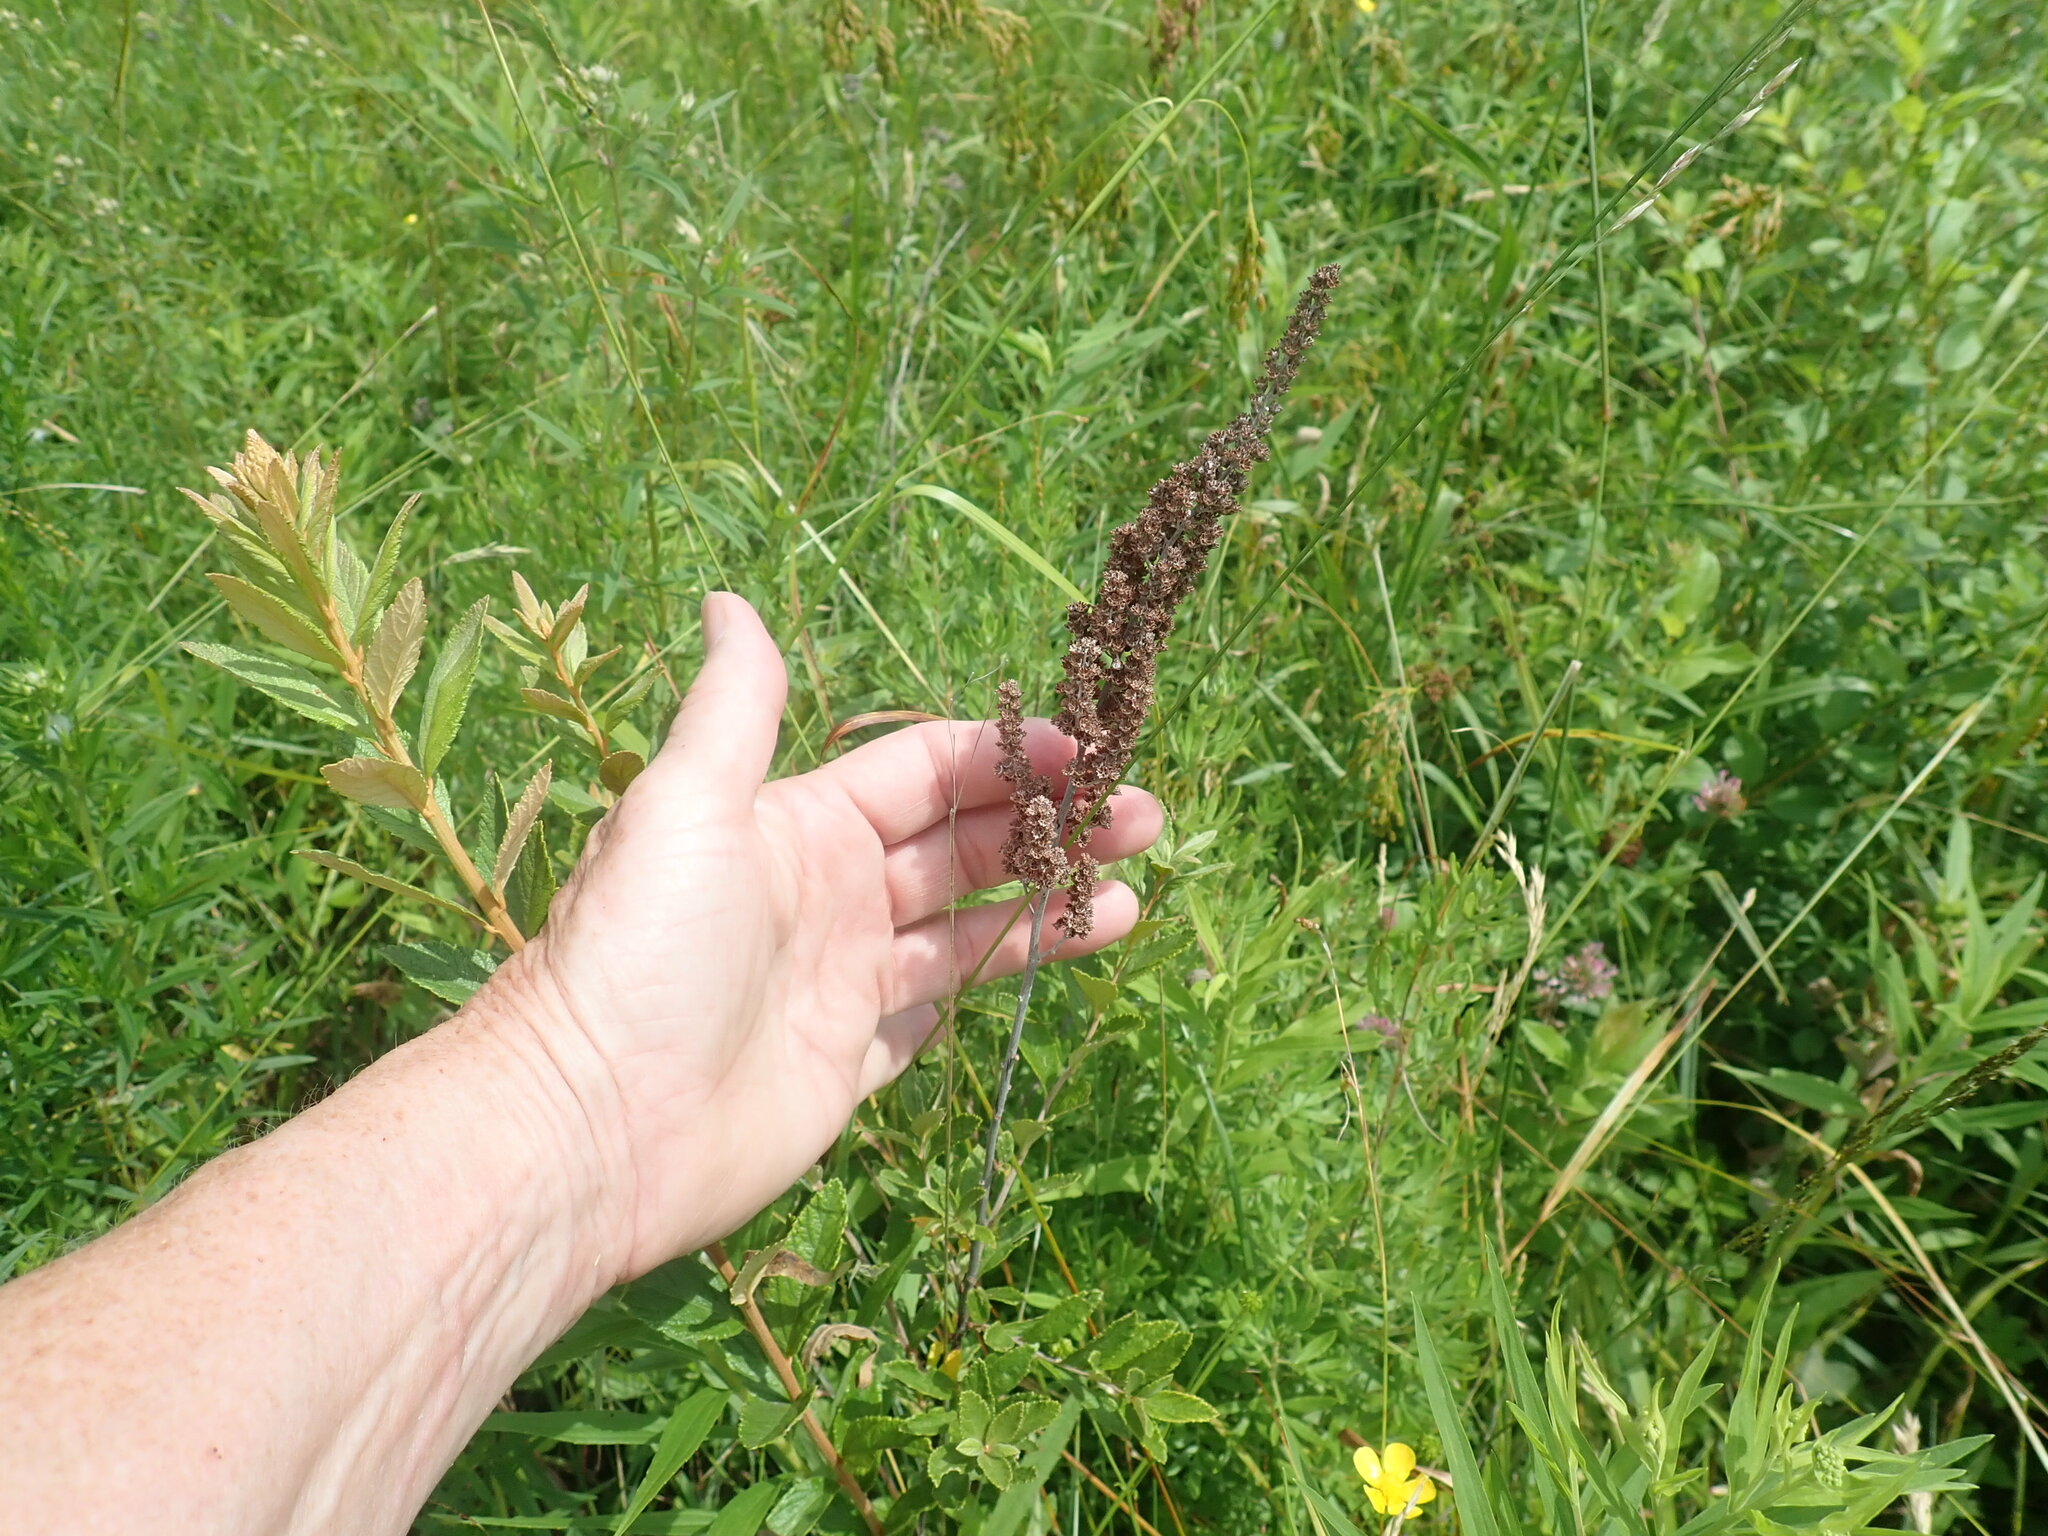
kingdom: Plantae
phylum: Tracheophyta
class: Magnoliopsida
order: Rosales
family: Rosaceae
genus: Spiraea
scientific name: Spiraea tomentosa
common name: Hardhack
